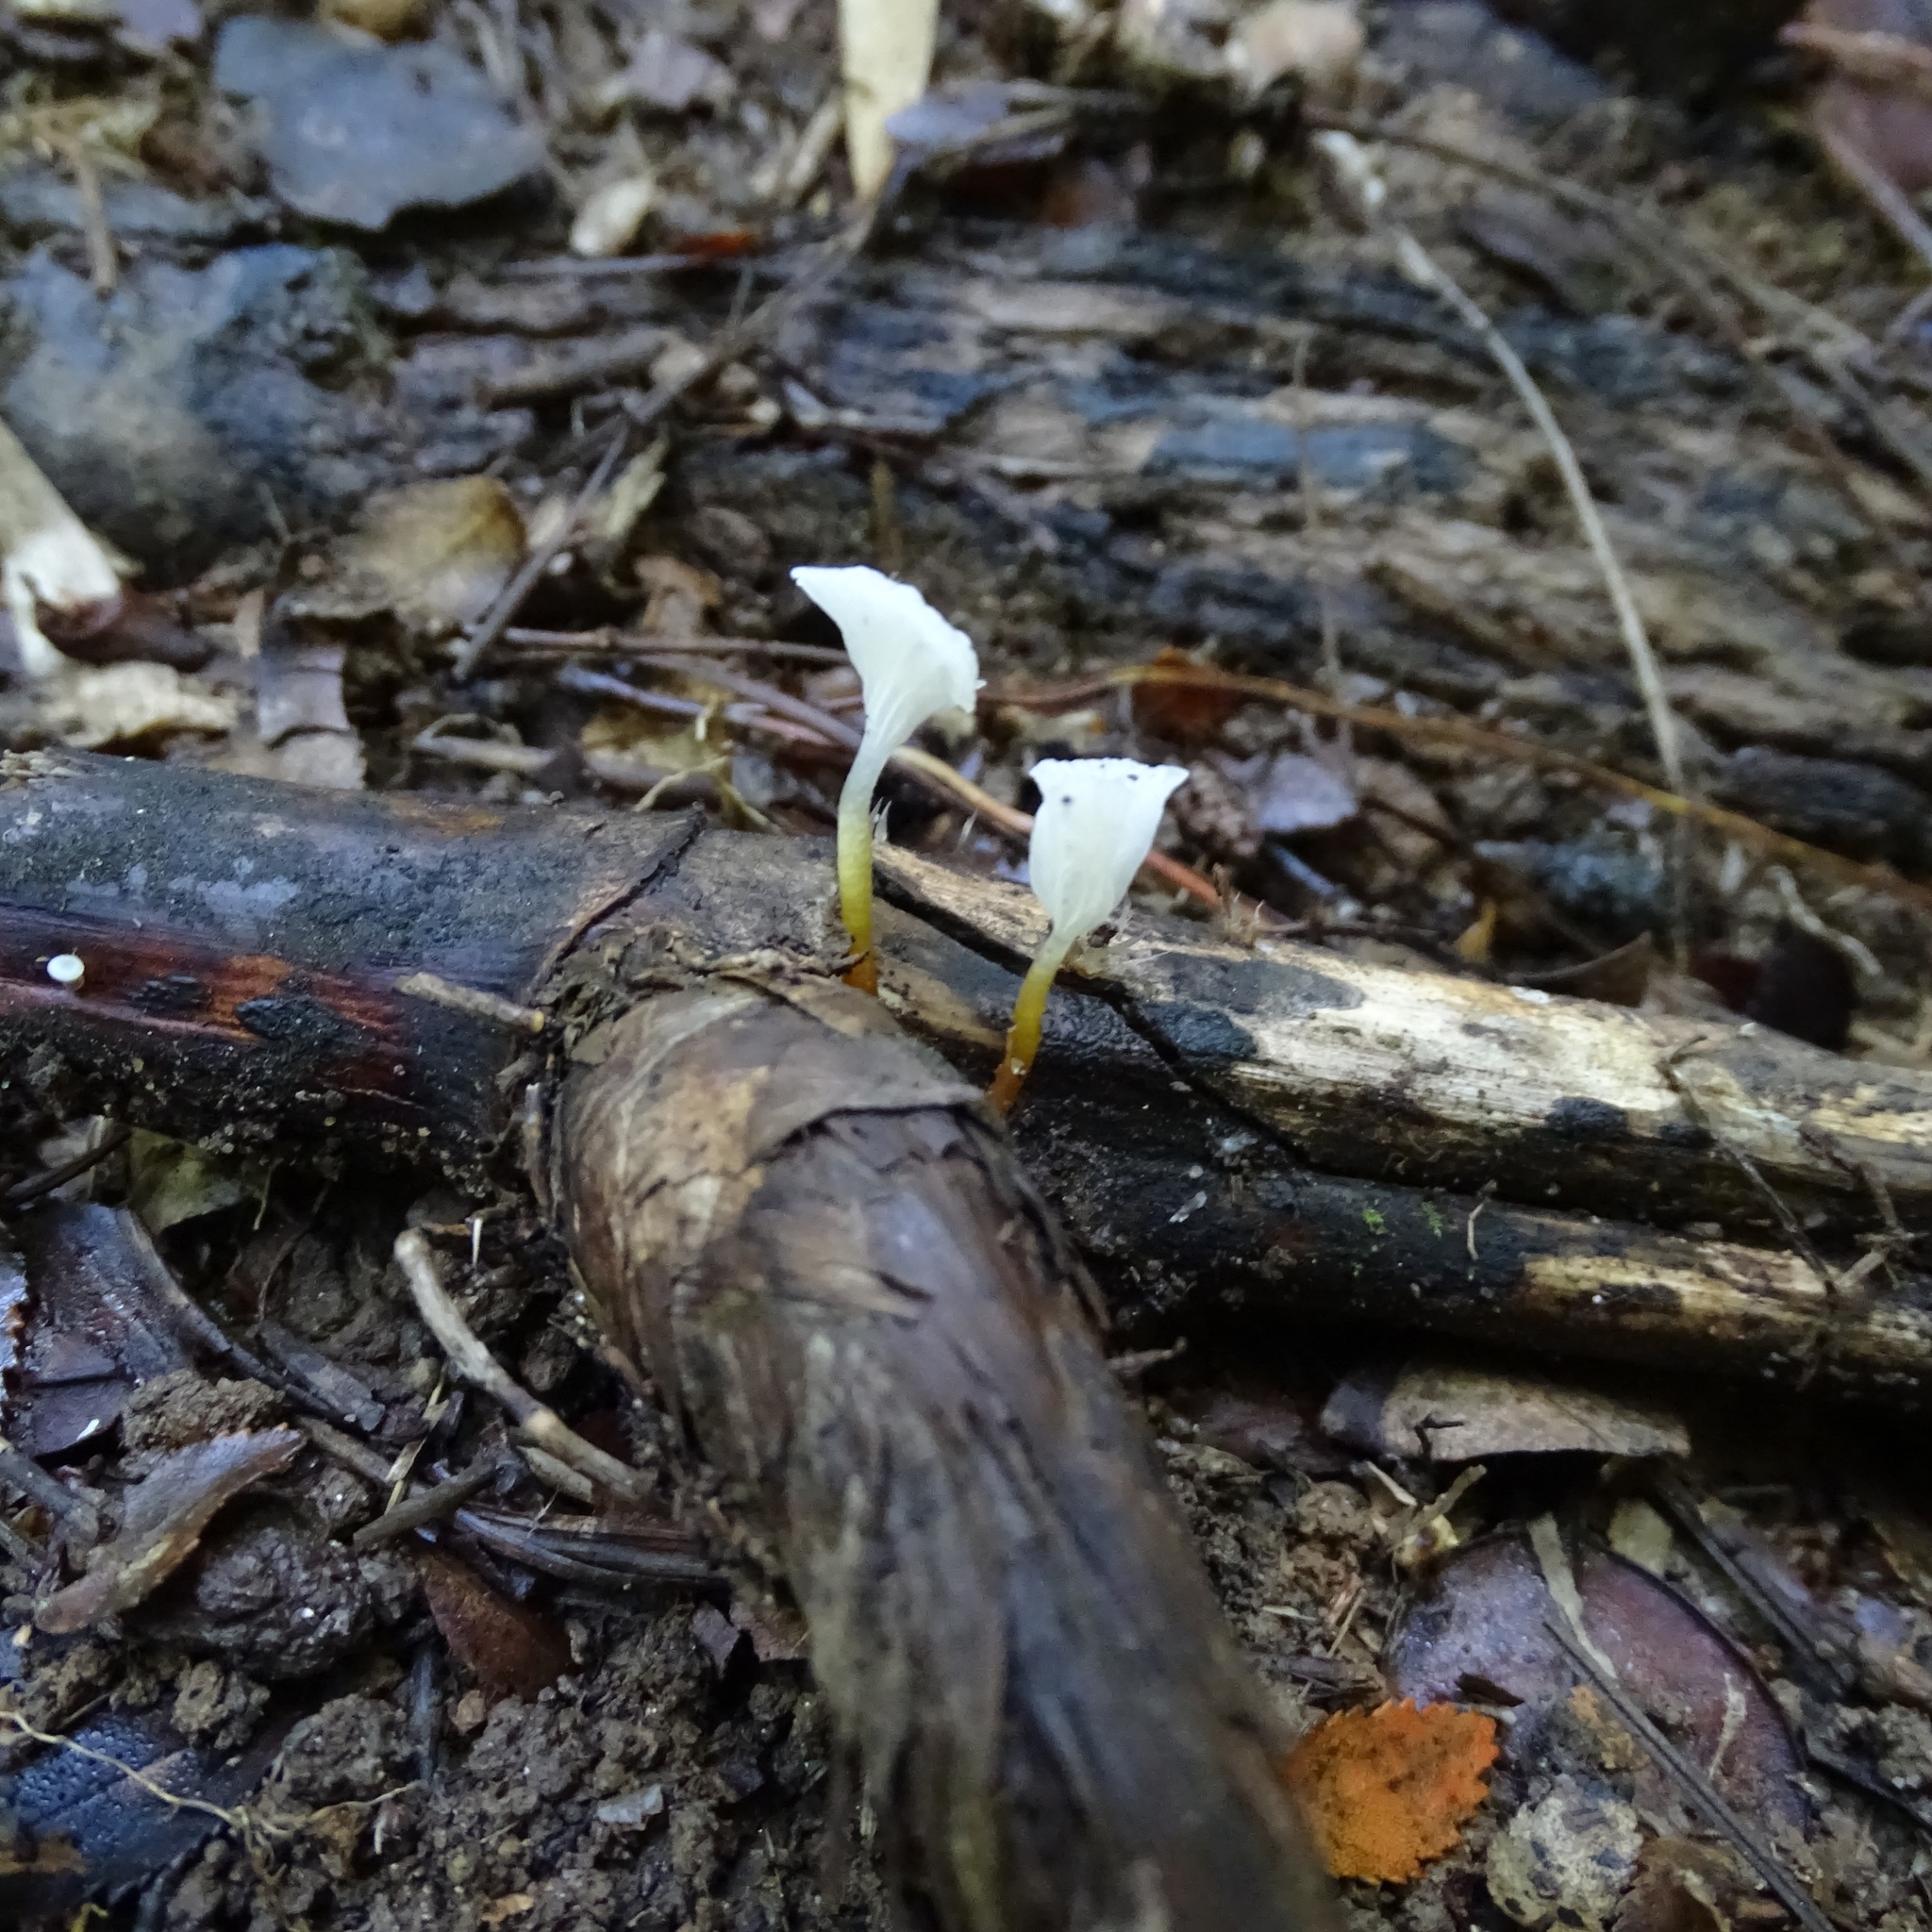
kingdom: Fungi
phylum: Basidiomycota
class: Agaricomycetes
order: Agaricales
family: Mycenaceae
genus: Mycena
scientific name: Mycena subulifera
